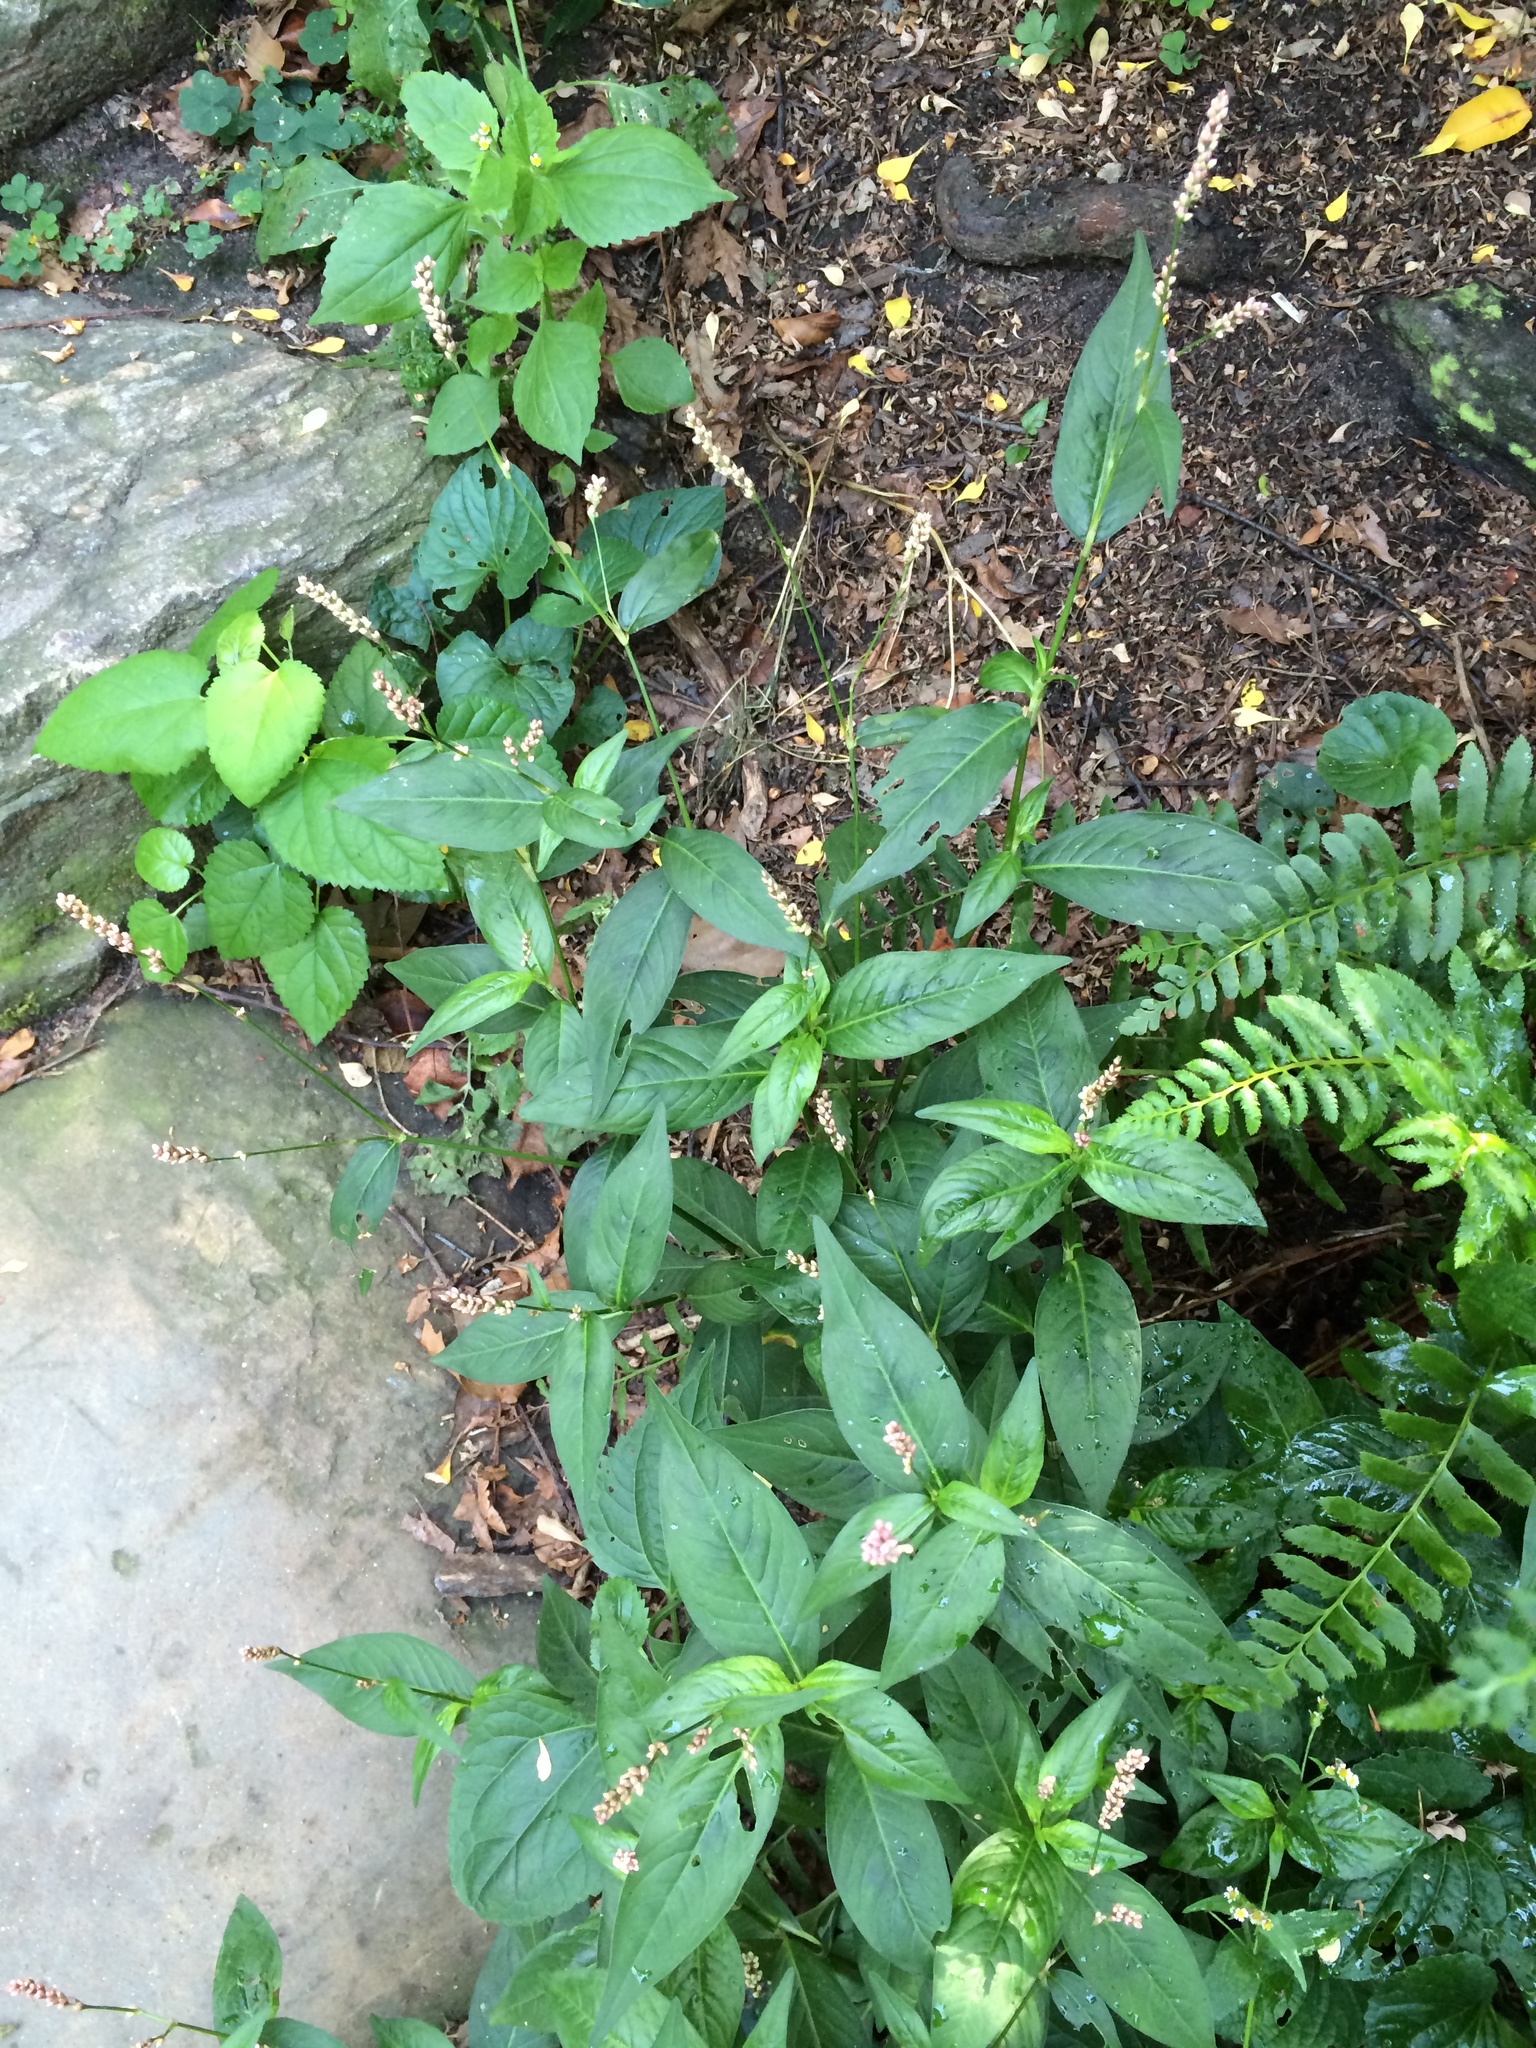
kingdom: Plantae
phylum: Tracheophyta
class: Magnoliopsida
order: Caryophyllales
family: Polygonaceae
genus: Persicaria
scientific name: Persicaria longiseta
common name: Bristly lady's-thumb
